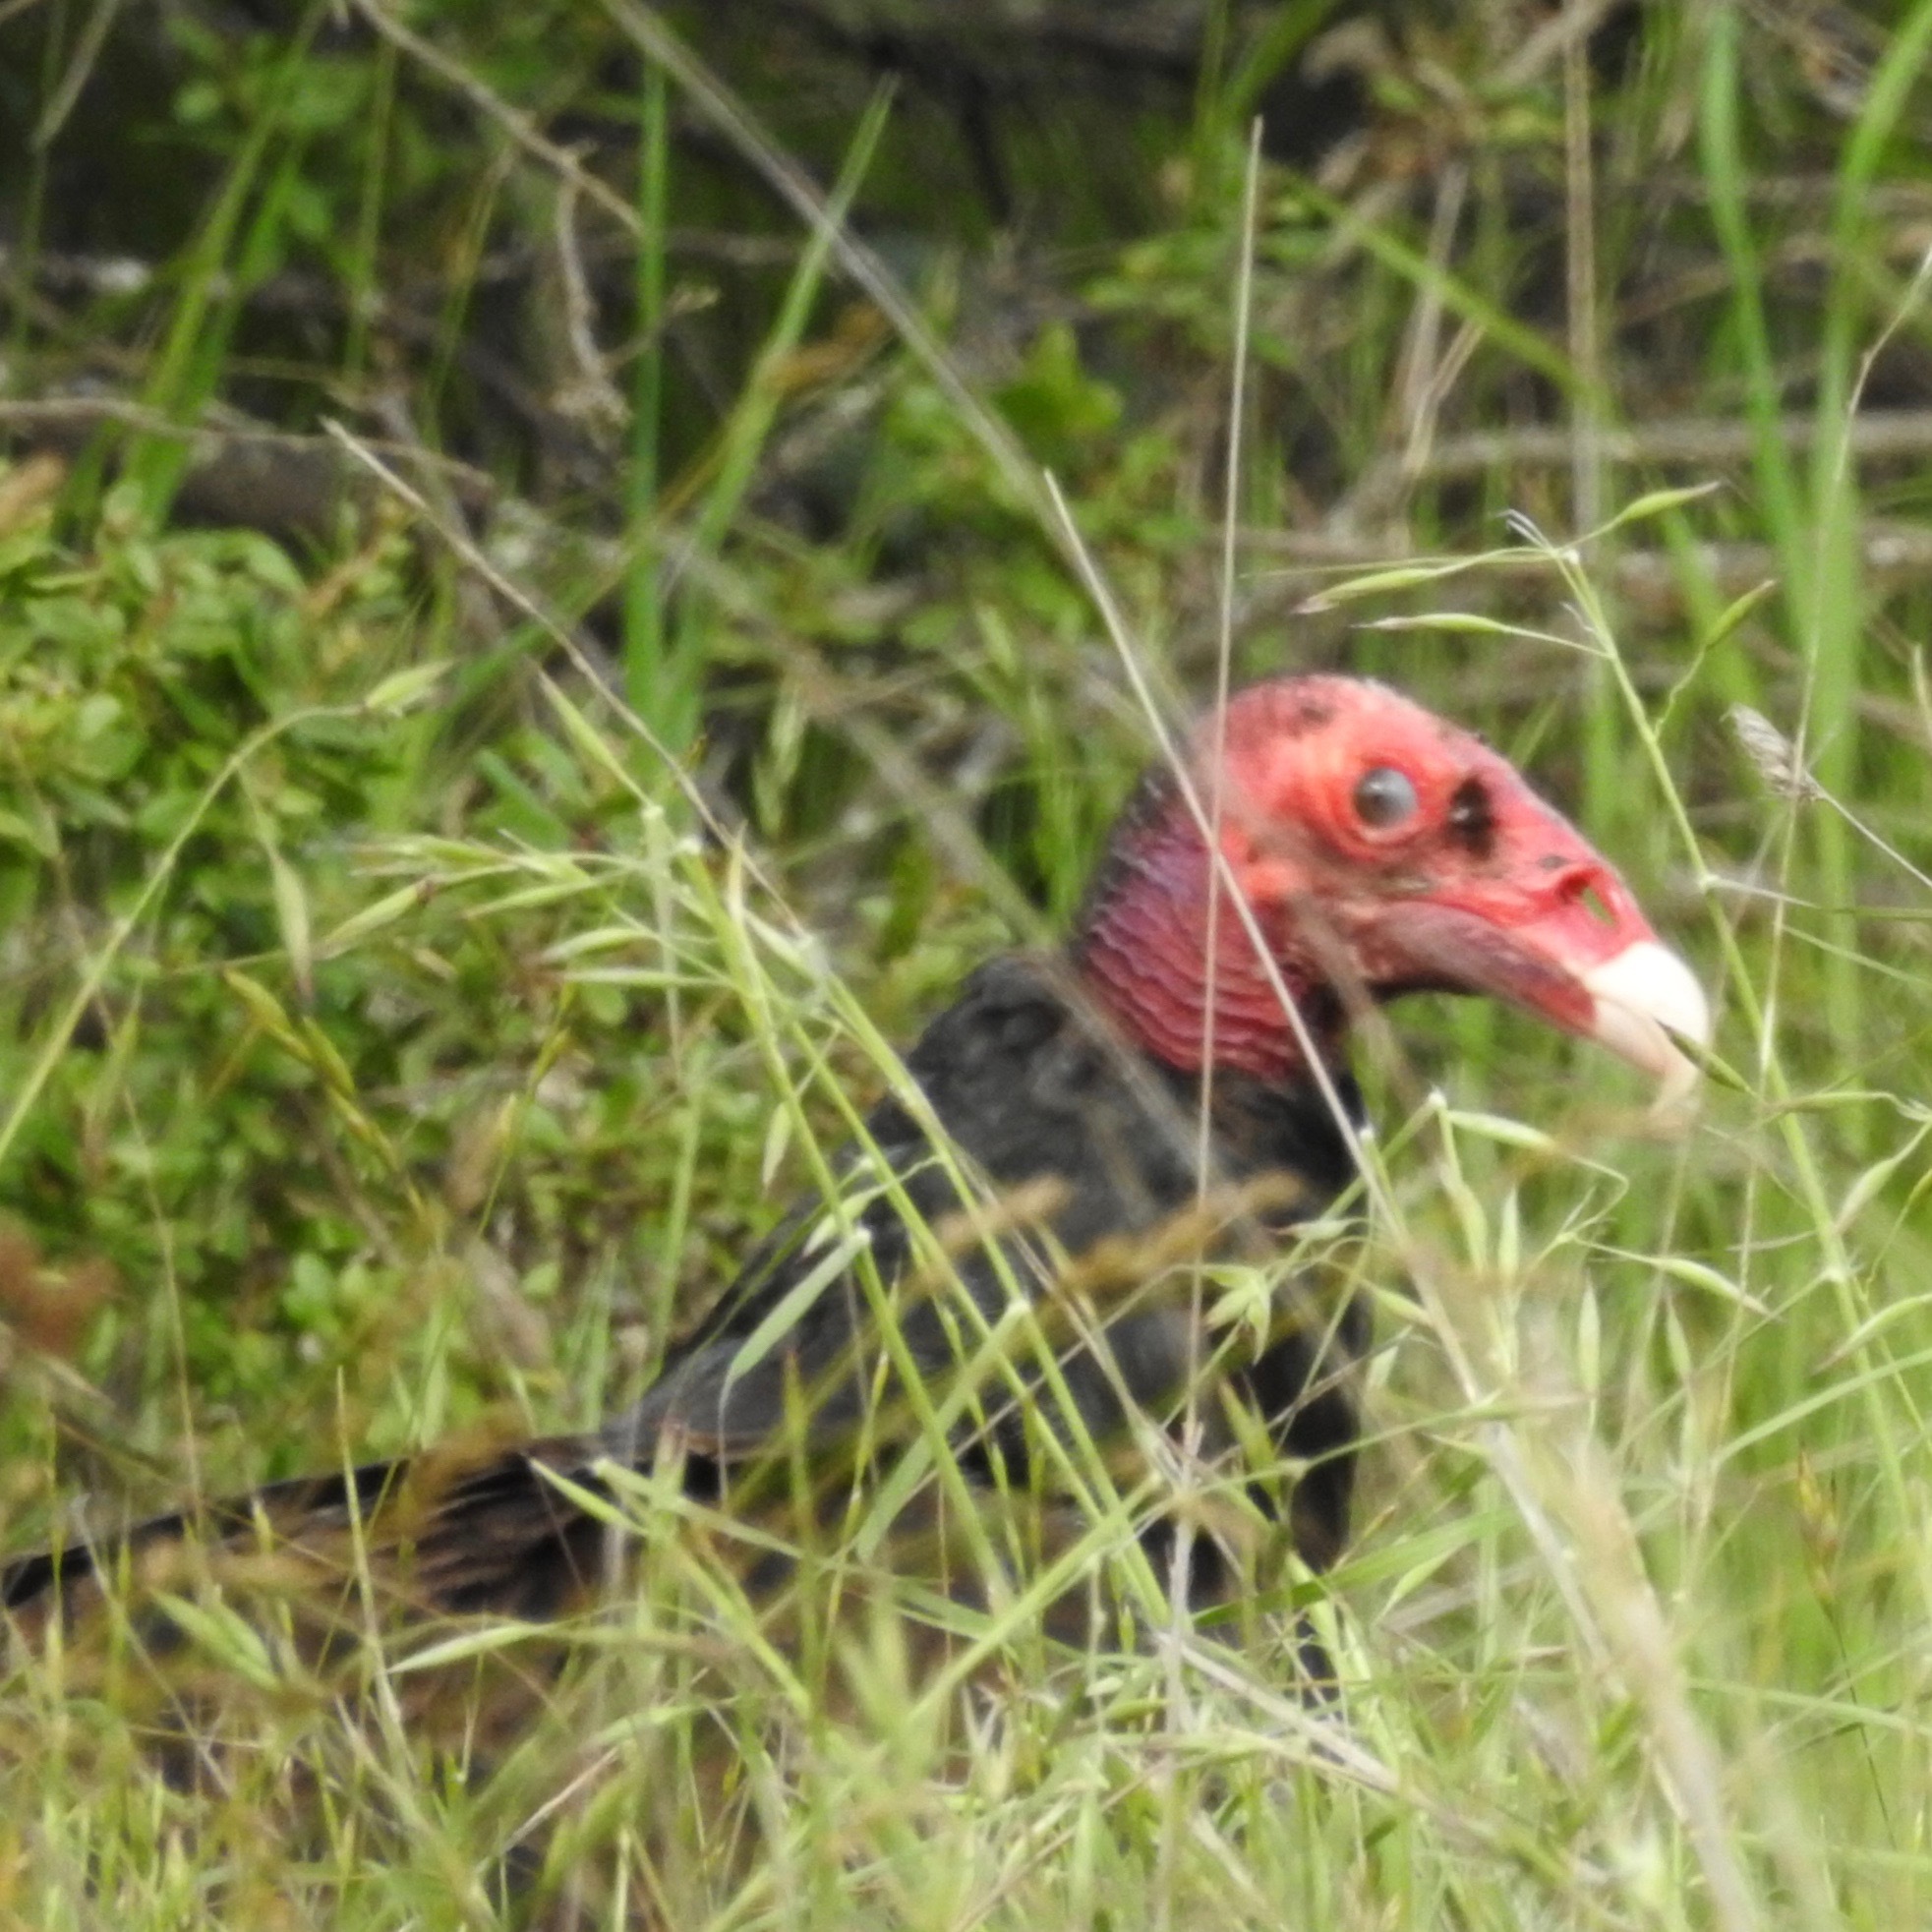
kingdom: Animalia
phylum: Chordata
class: Aves
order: Accipitriformes
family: Cathartidae
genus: Cathartes
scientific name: Cathartes aura
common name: Turkey vulture
